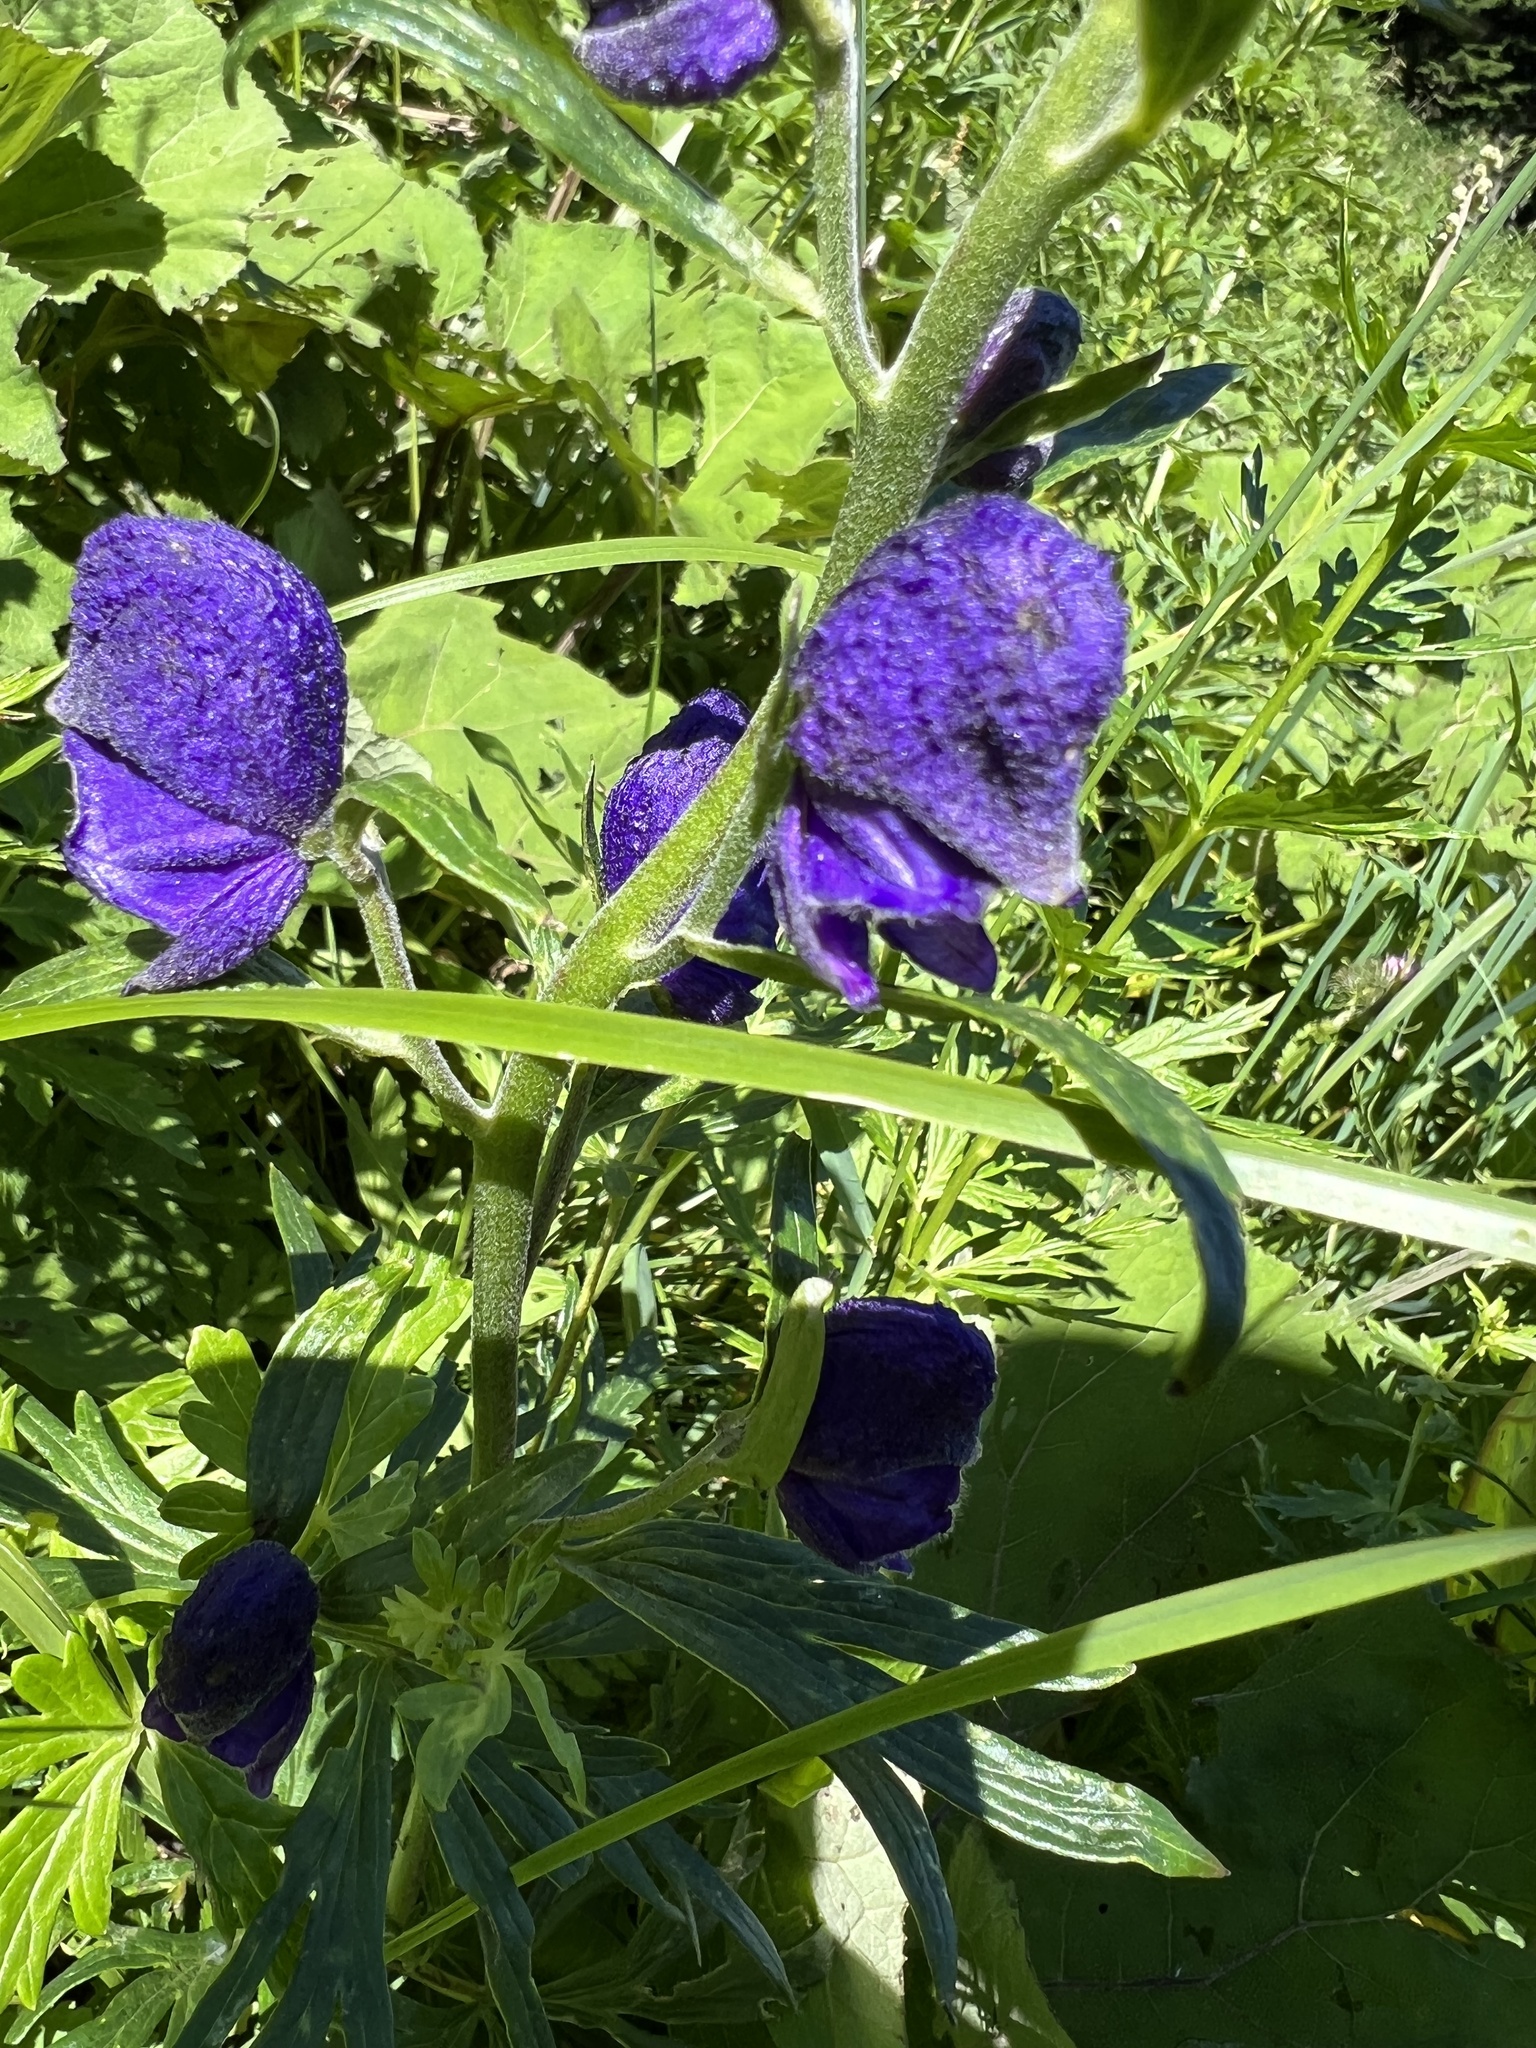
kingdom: Plantae
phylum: Tracheophyta
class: Magnoliopsida
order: Ranunculales
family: Ranunculaceae
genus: Aconitum
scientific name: Aconitum napellus
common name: Garden monkshood
